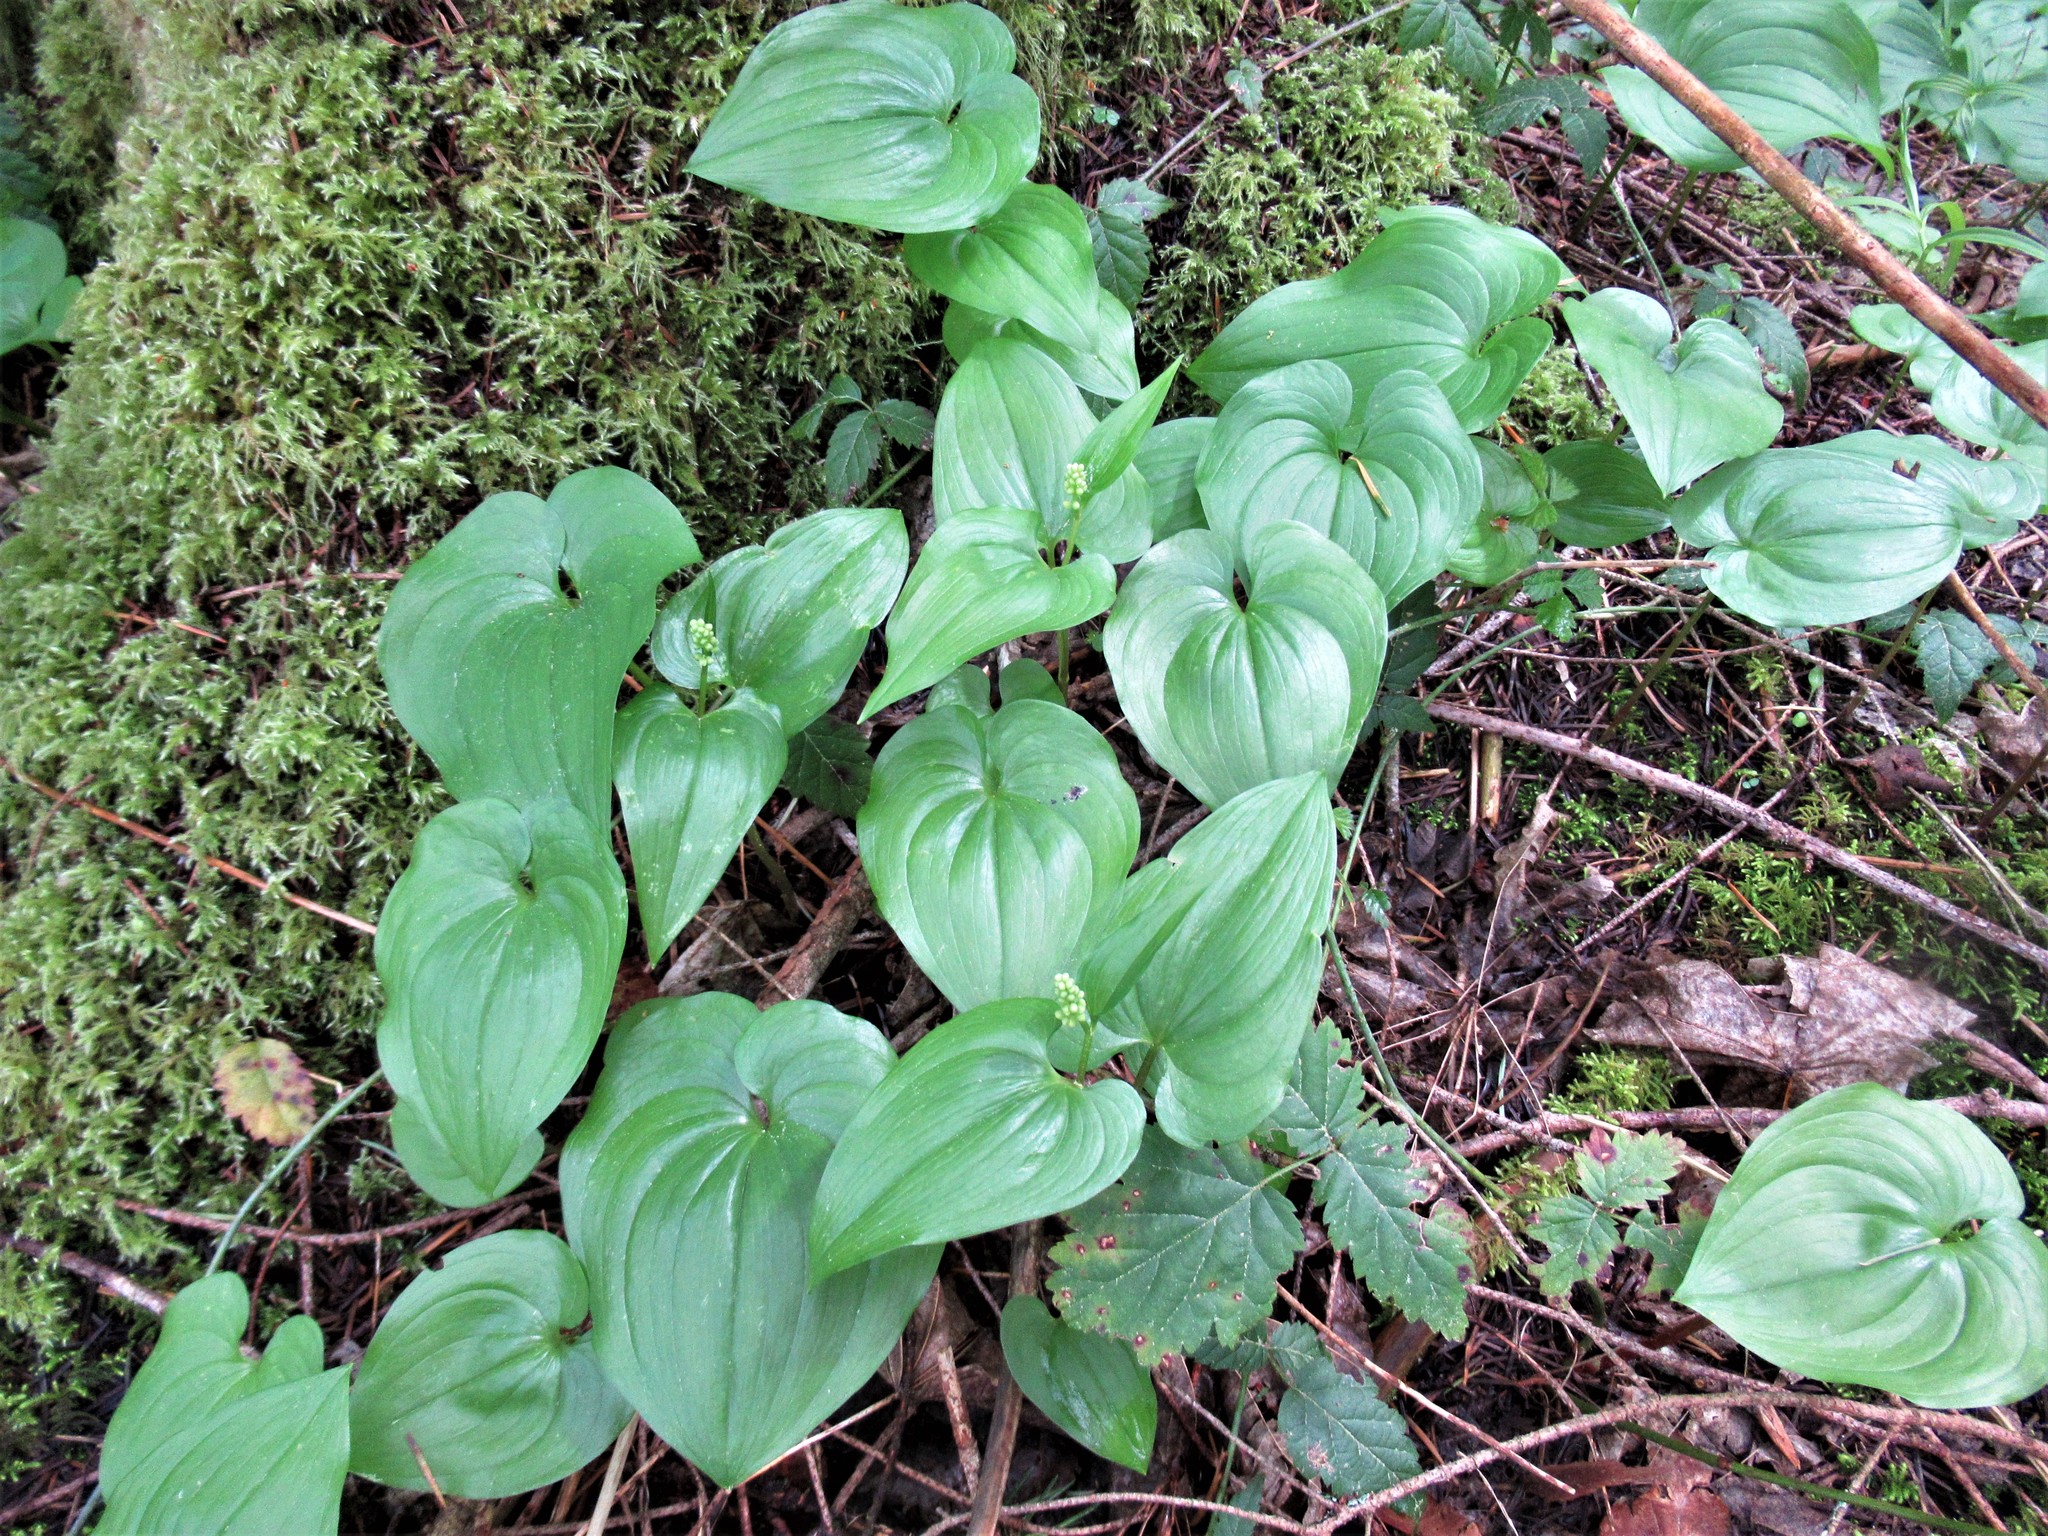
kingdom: Plantae
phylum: Tracheophyta
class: Liliopsida
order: Asparagales
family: Asparagaceae
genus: Maianthemum
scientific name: Maianthemum dilatatum
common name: False lily-of-the-valley
